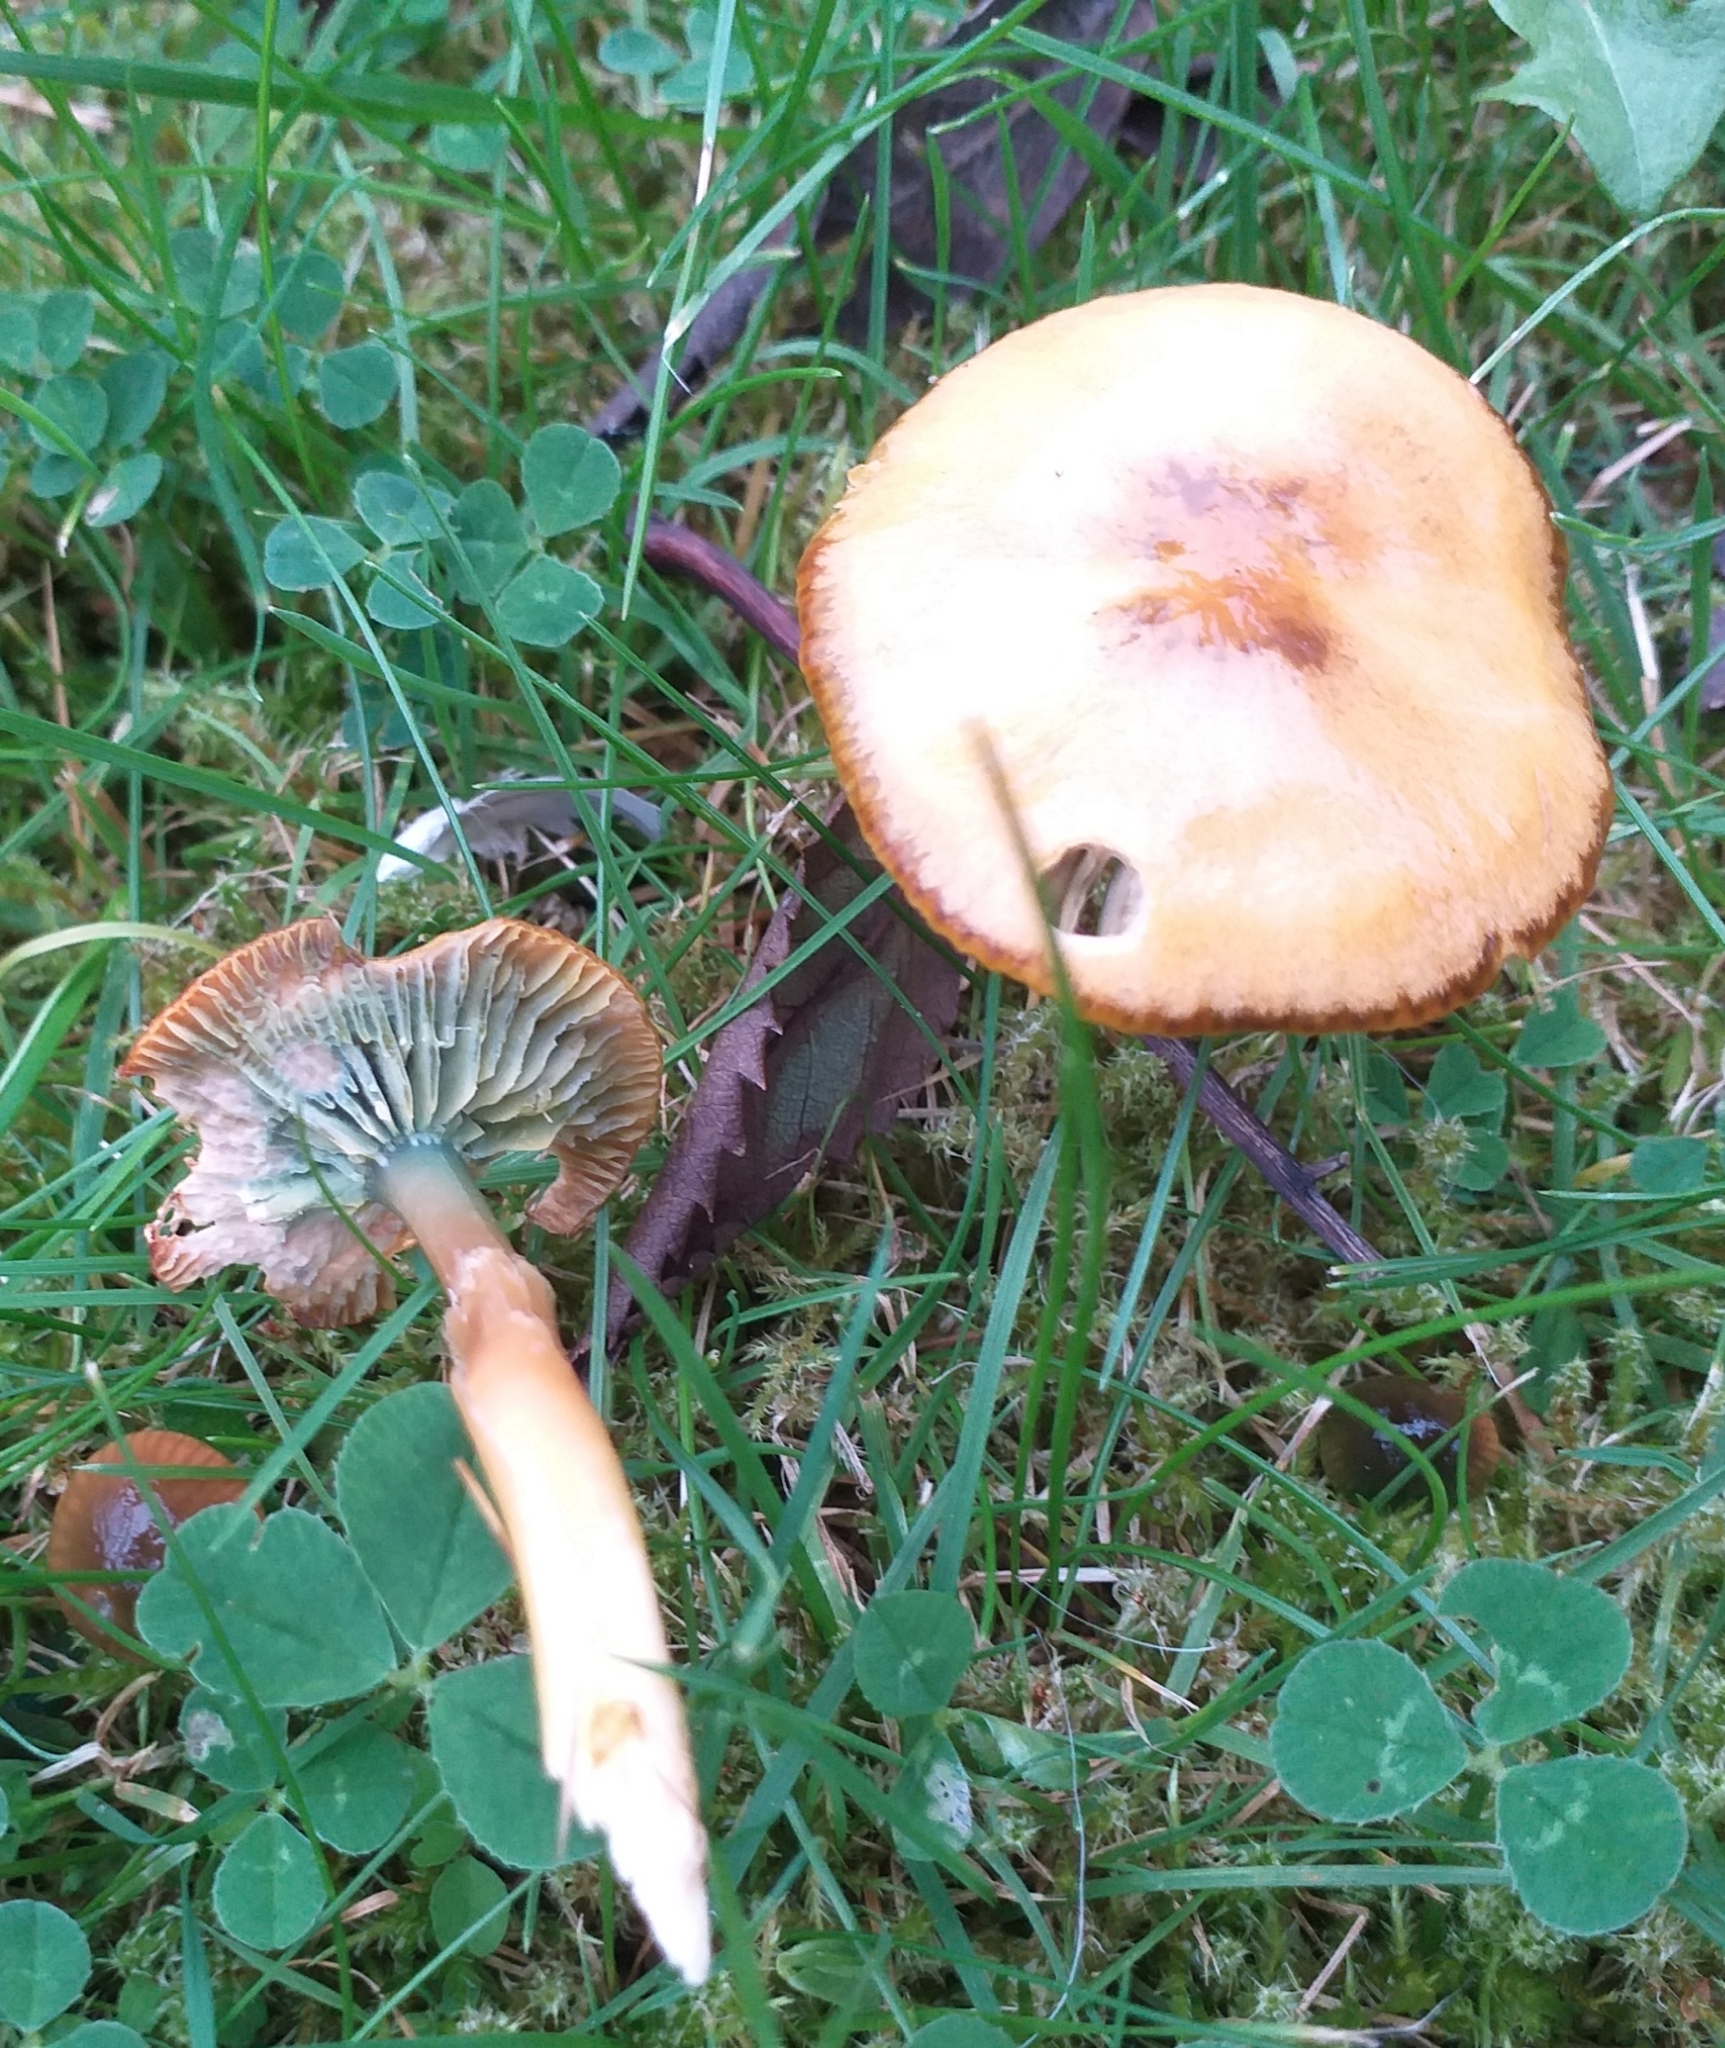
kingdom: Fungi
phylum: Basidiomycota
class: Agaricomycetes
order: Agaricales
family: Hygrophoraceae
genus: Gliophorus
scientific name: Gliophorus psittacinus
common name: Parrot wax-cap
